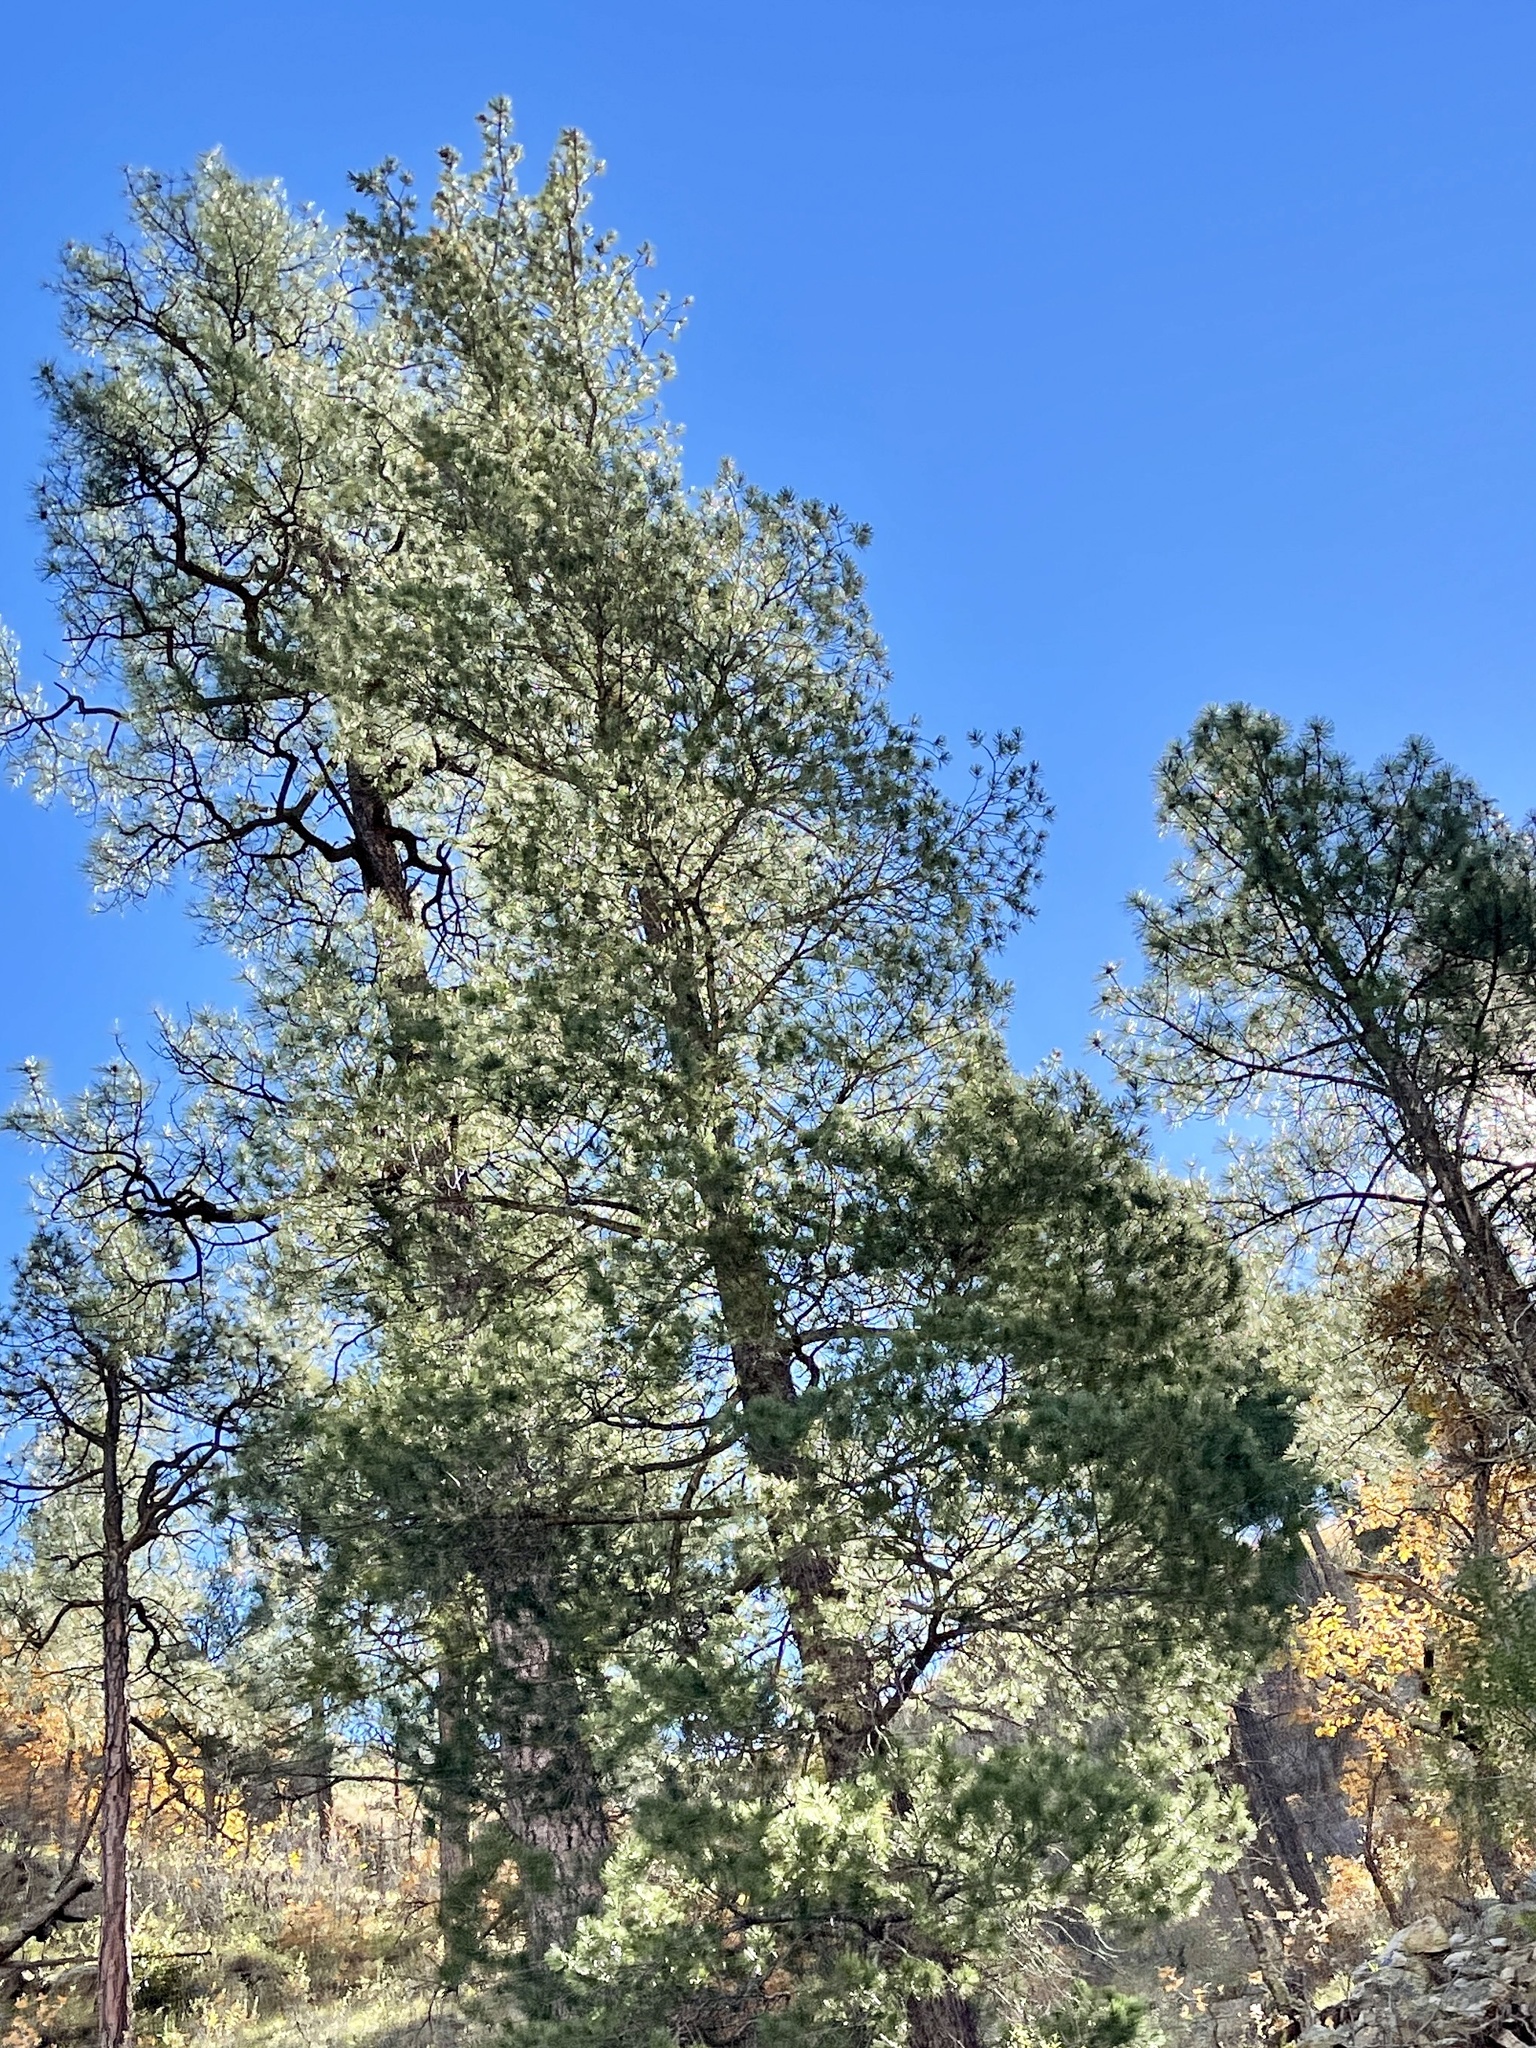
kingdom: Plantae
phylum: Tracheophyta
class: Pinopsida
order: Pinales
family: Pinaceae
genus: Pinus
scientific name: Pinus strobiformis
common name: Southwestern white pine
